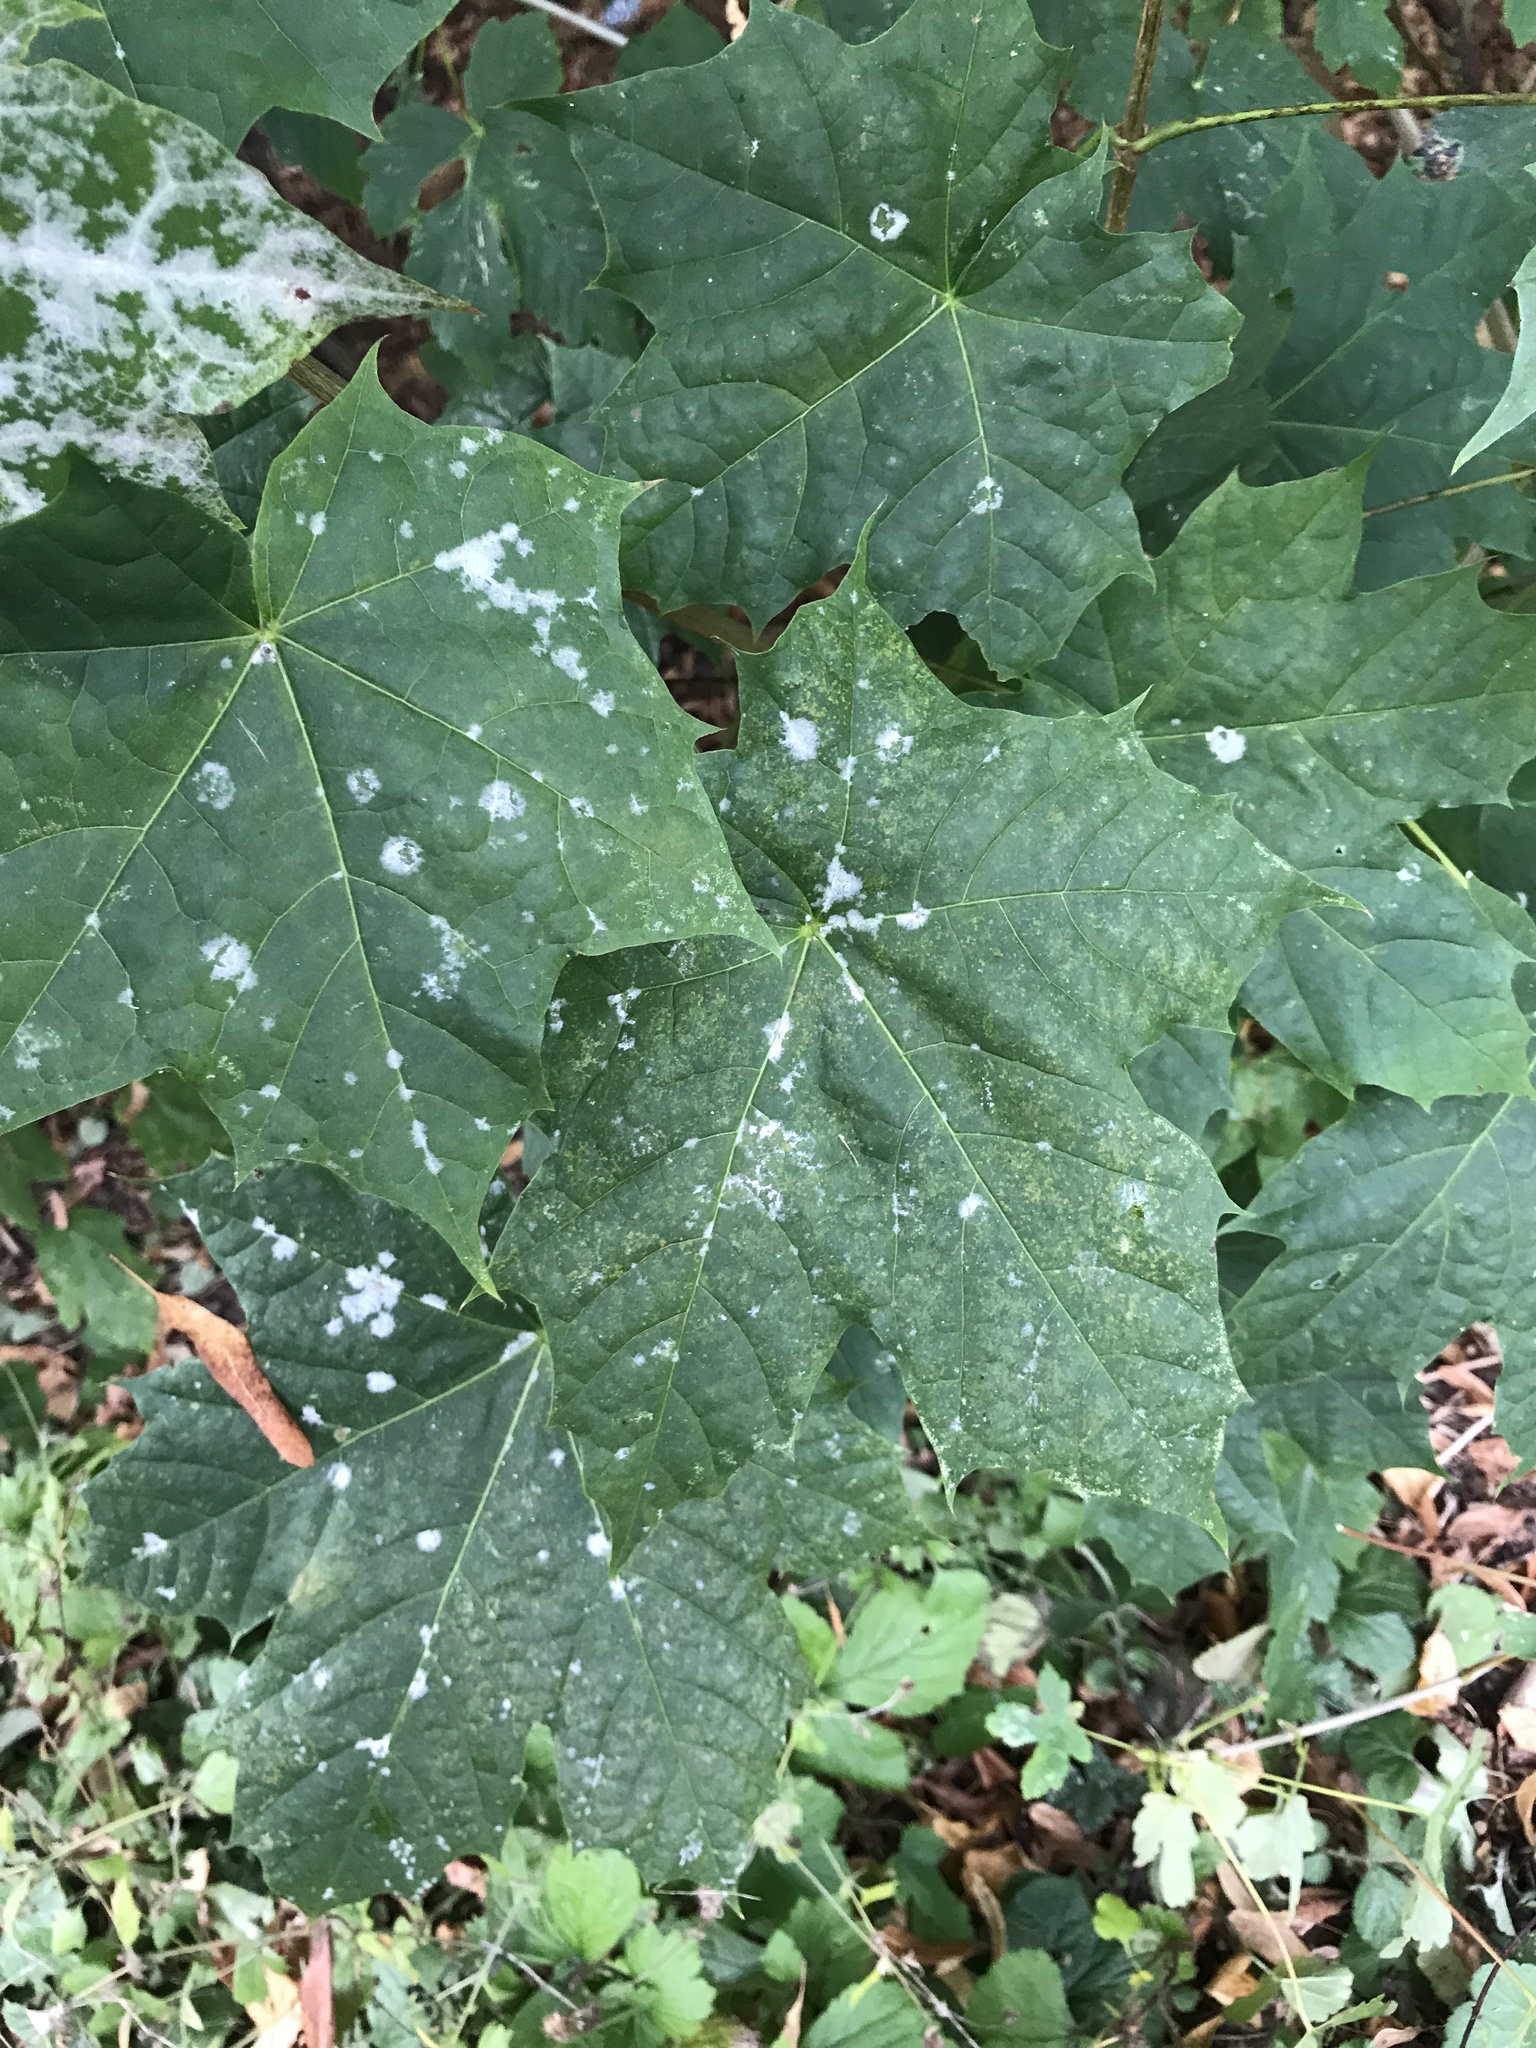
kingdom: Fungi
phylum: Ascomycota
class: Leotiomycetes
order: Helotiales
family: Erysiphaceae
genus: Sawadaea
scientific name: Sawadaea tulasnei
